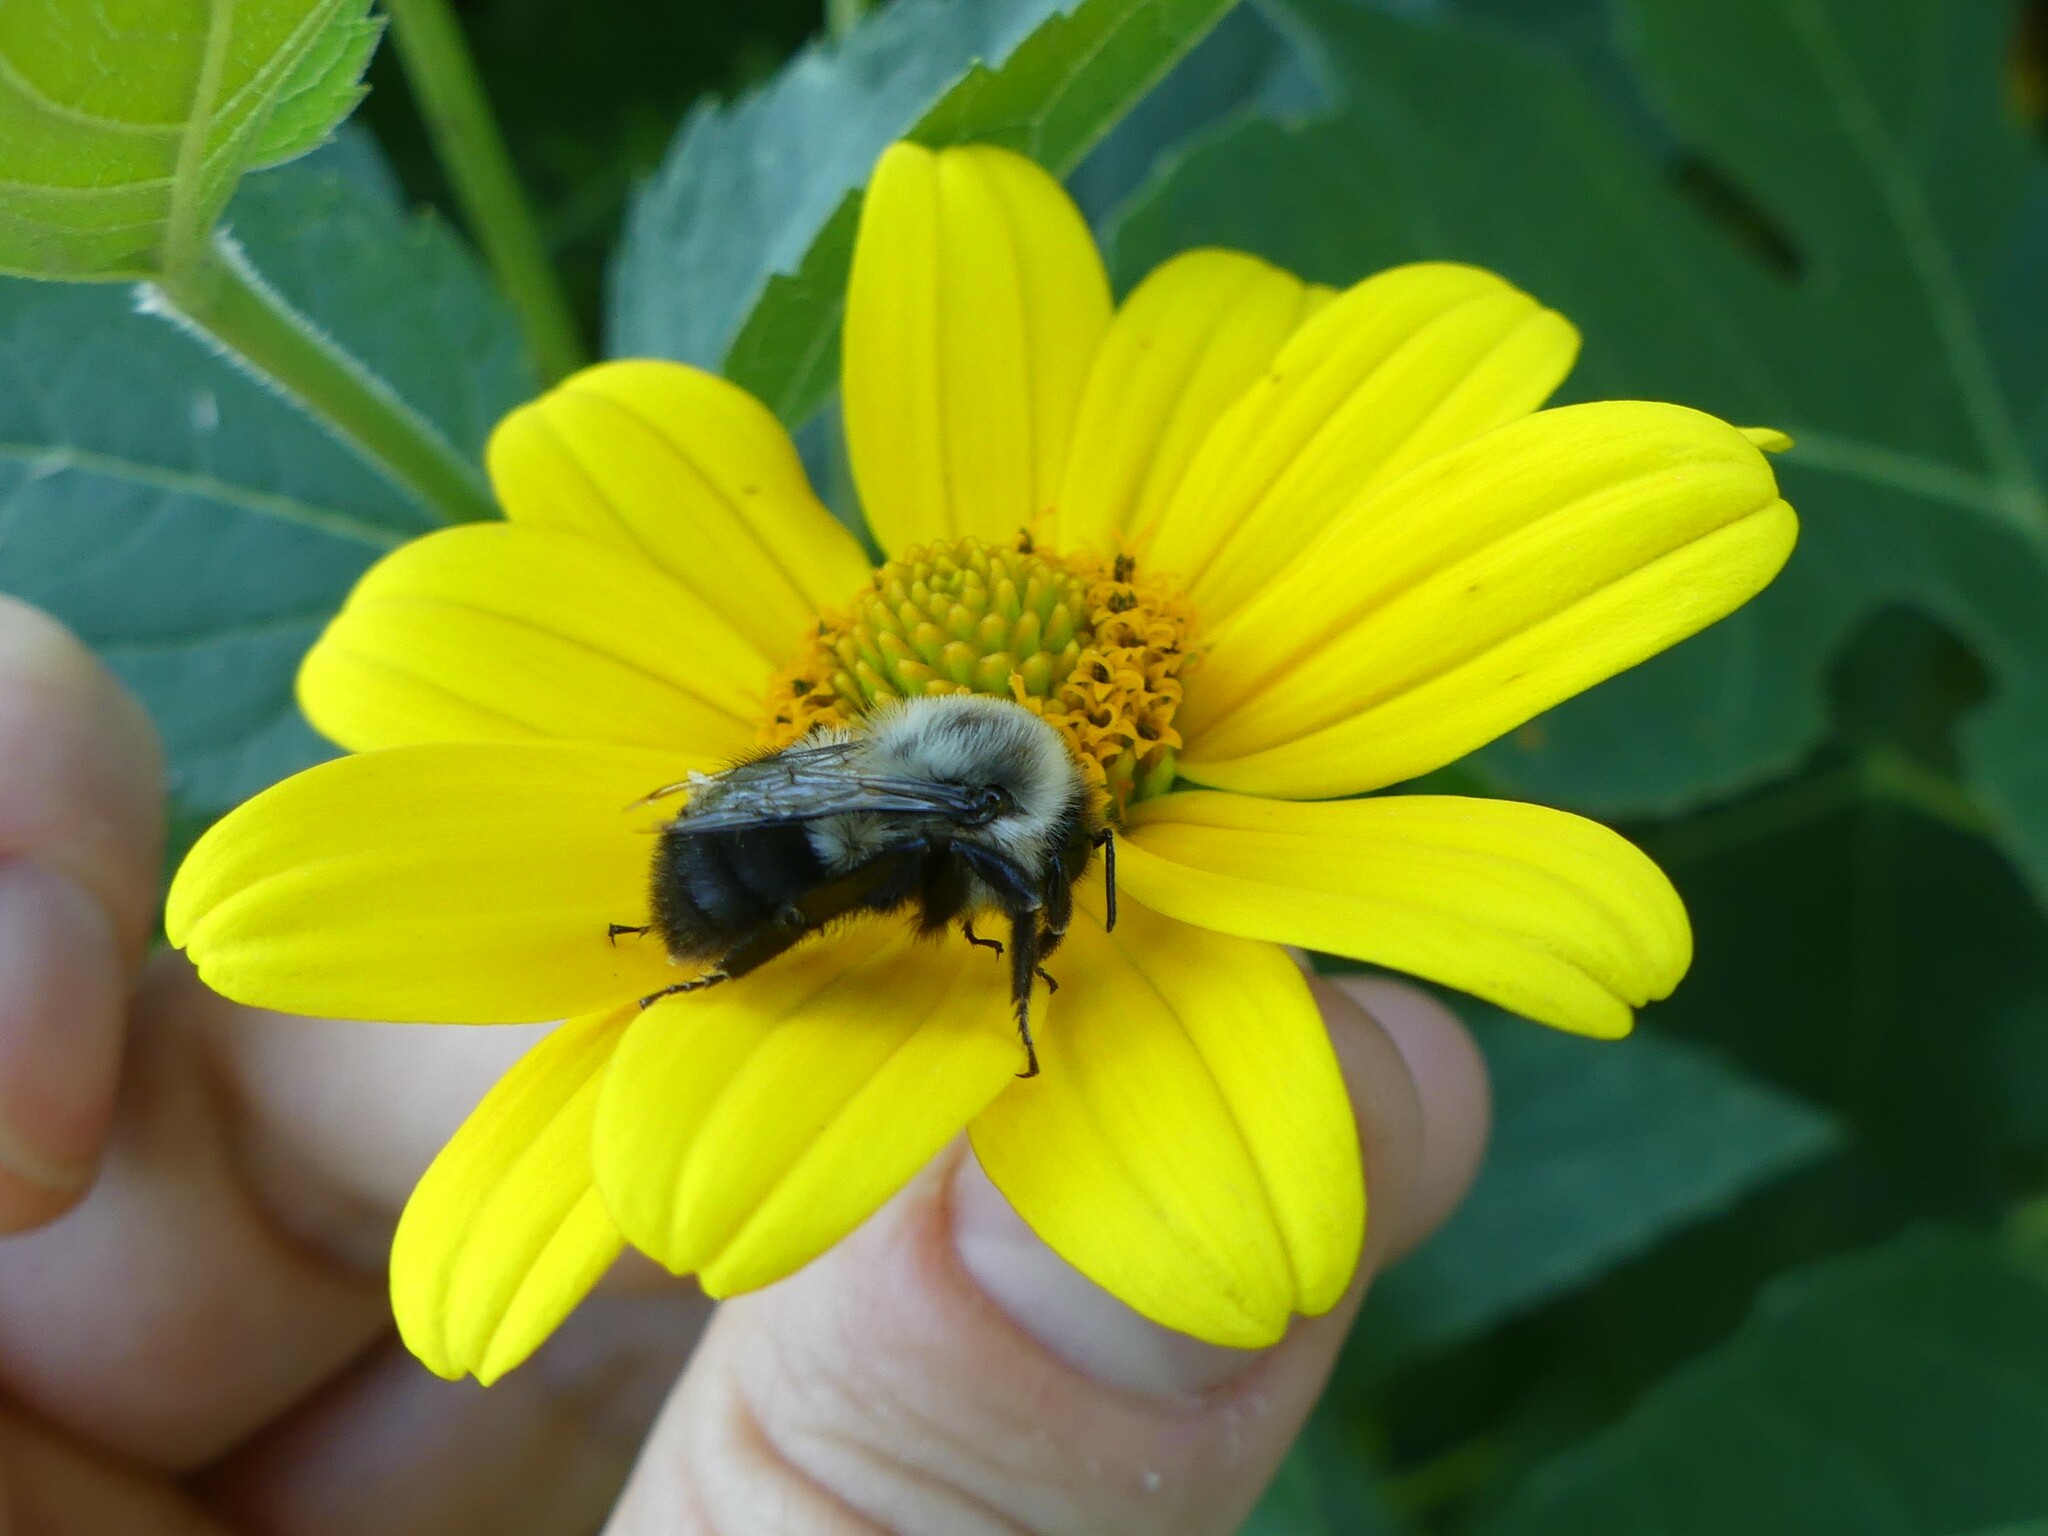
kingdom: Animalia
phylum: Arthropoda
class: Insecta
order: Hymenoptera
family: Apidae
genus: Bombus
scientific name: Bombus impatiens
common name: Common eastern bumble bee
